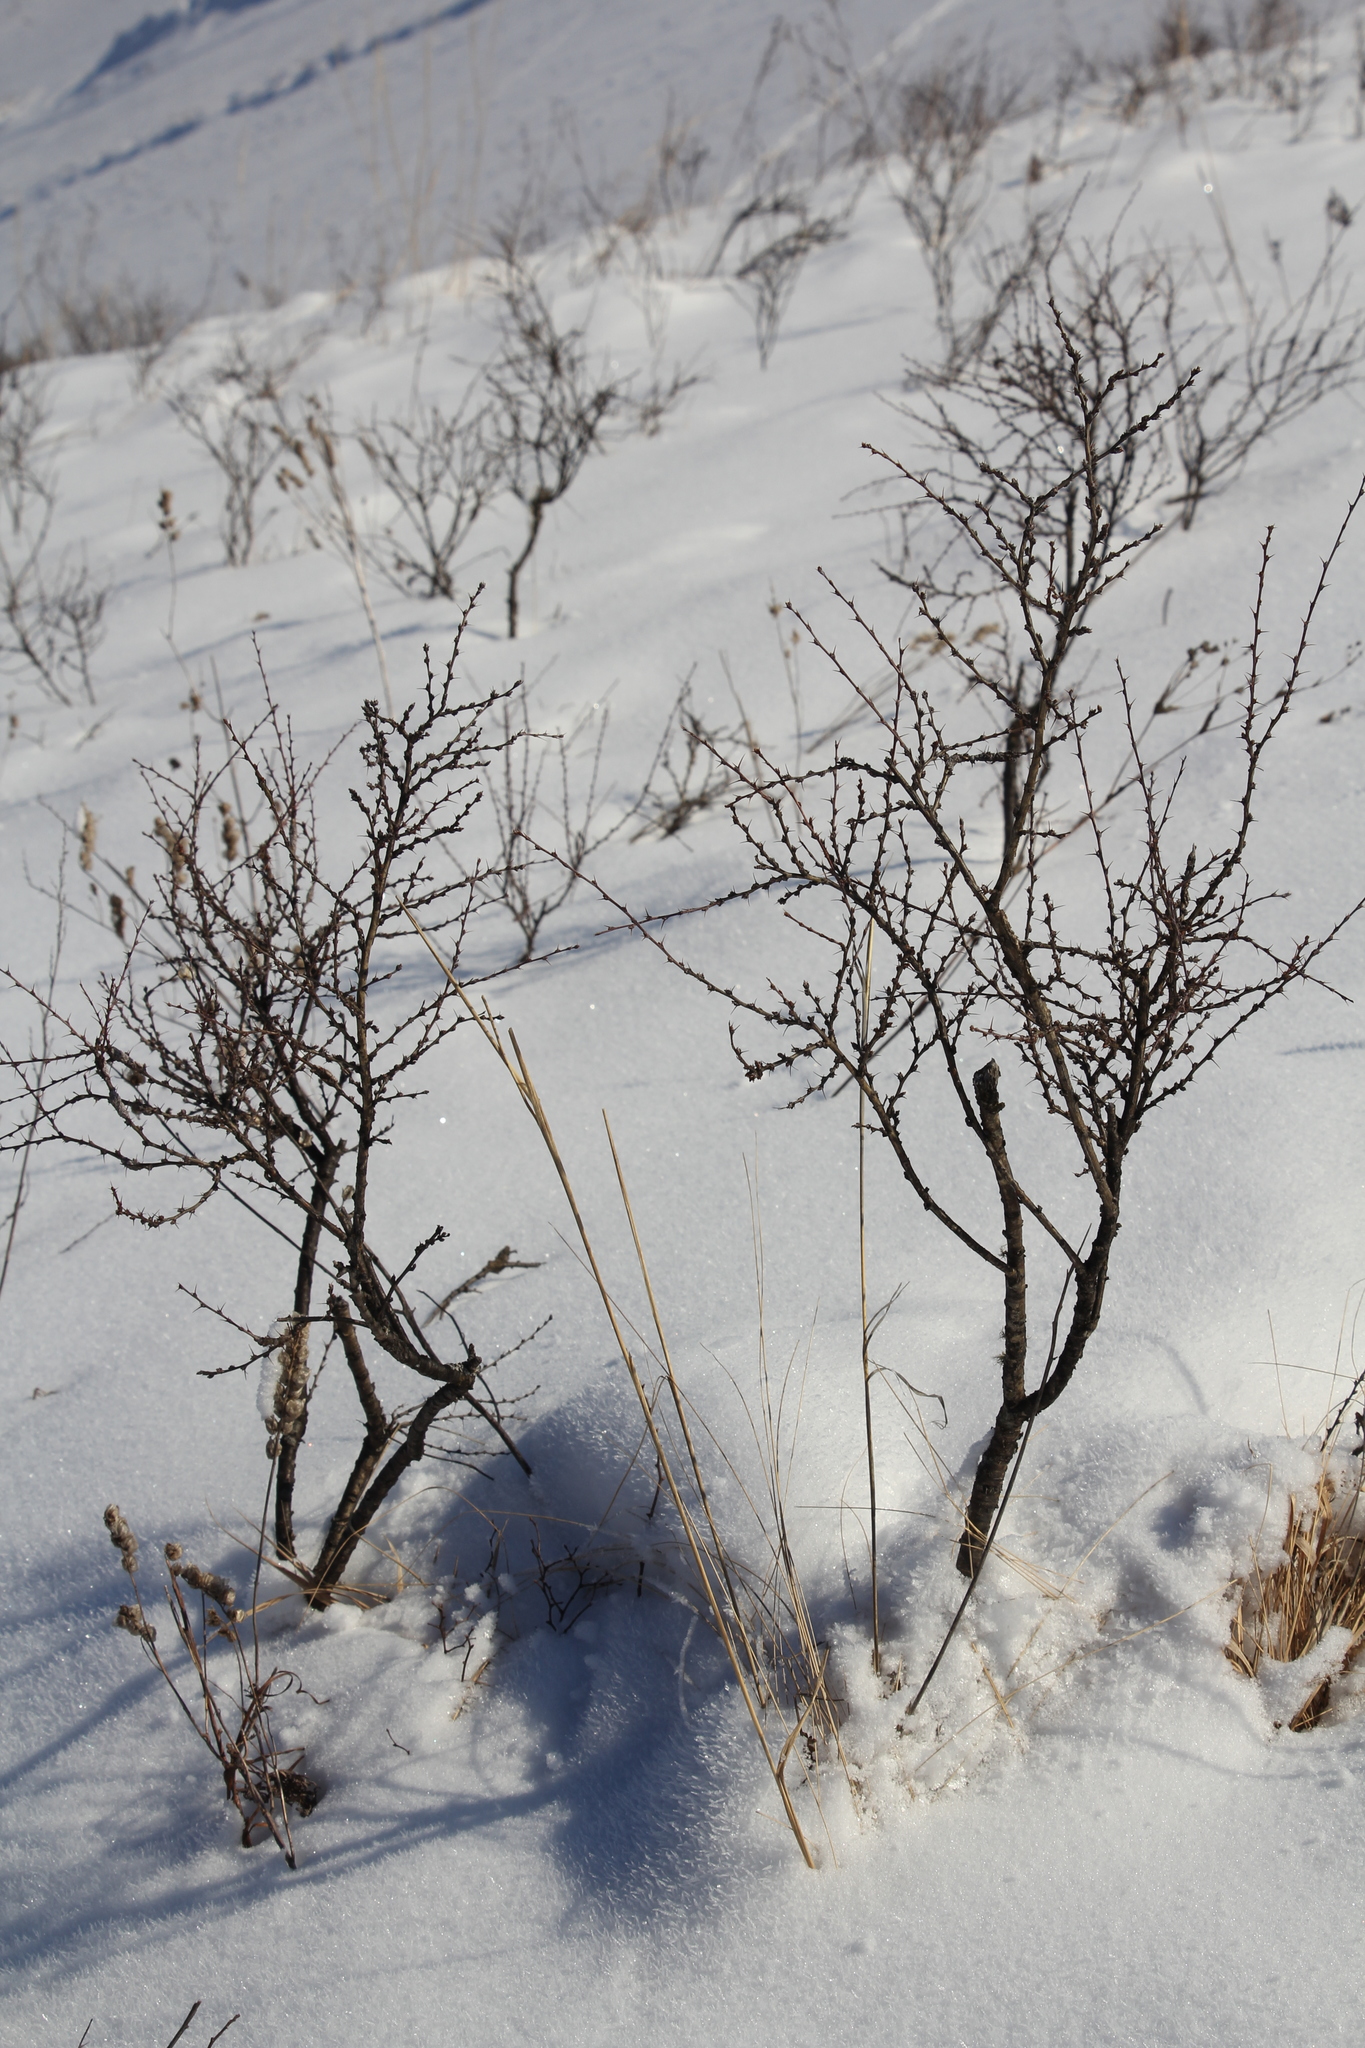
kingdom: Plantae
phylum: Tracheophyta
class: Magnoliopsida
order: Fabales
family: Fabaceae
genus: Caragana
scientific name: Caragana pygmaea
